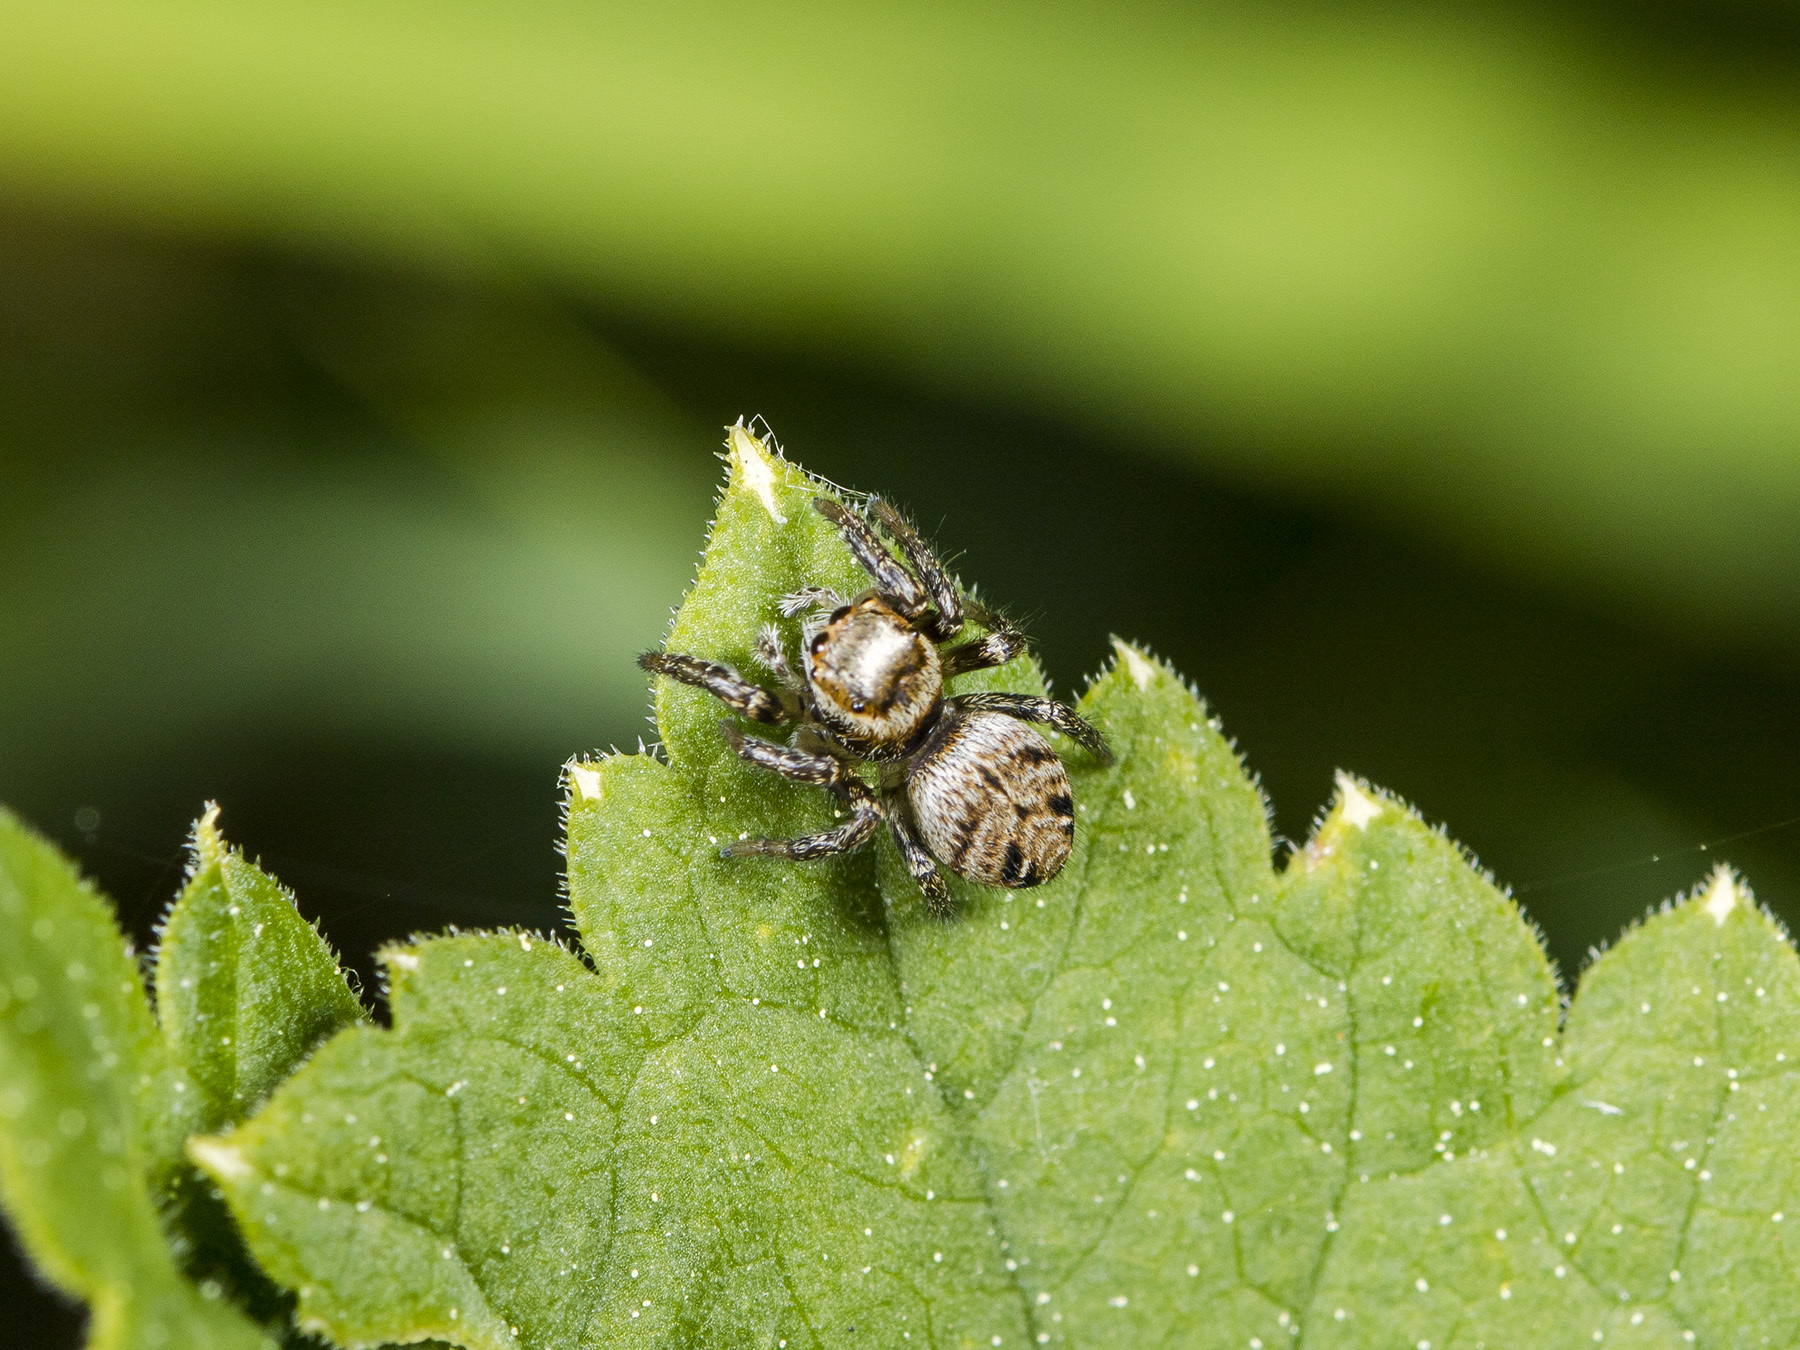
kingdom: Animalia
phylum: Arthropoda
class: Arachnida
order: Araneae
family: Salticidae
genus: Evarcha
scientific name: Evarcha arcuata
